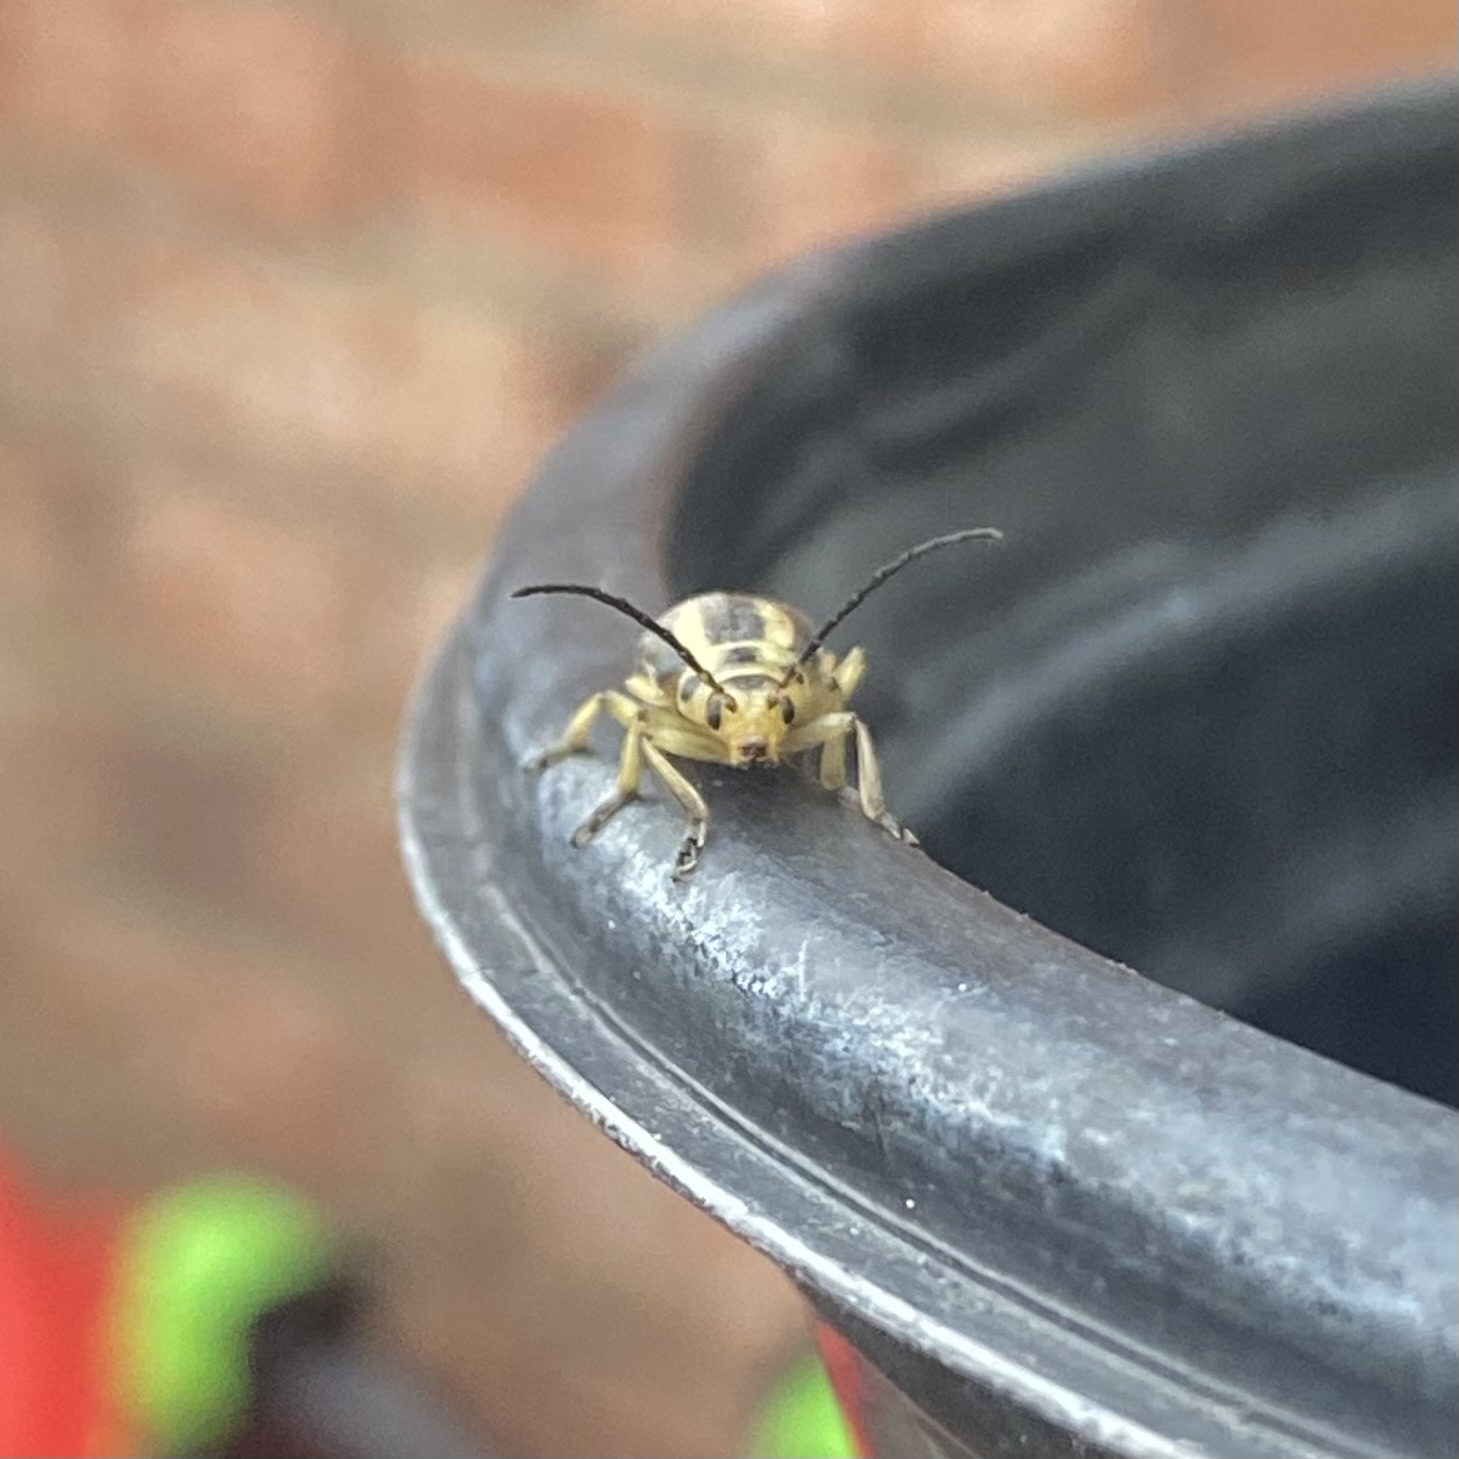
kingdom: Animalia
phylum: Arthropoda
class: Insecta
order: Coleoptera
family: Chrysomelidae
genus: Trirhabda
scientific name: Trirhabda bacharidis
